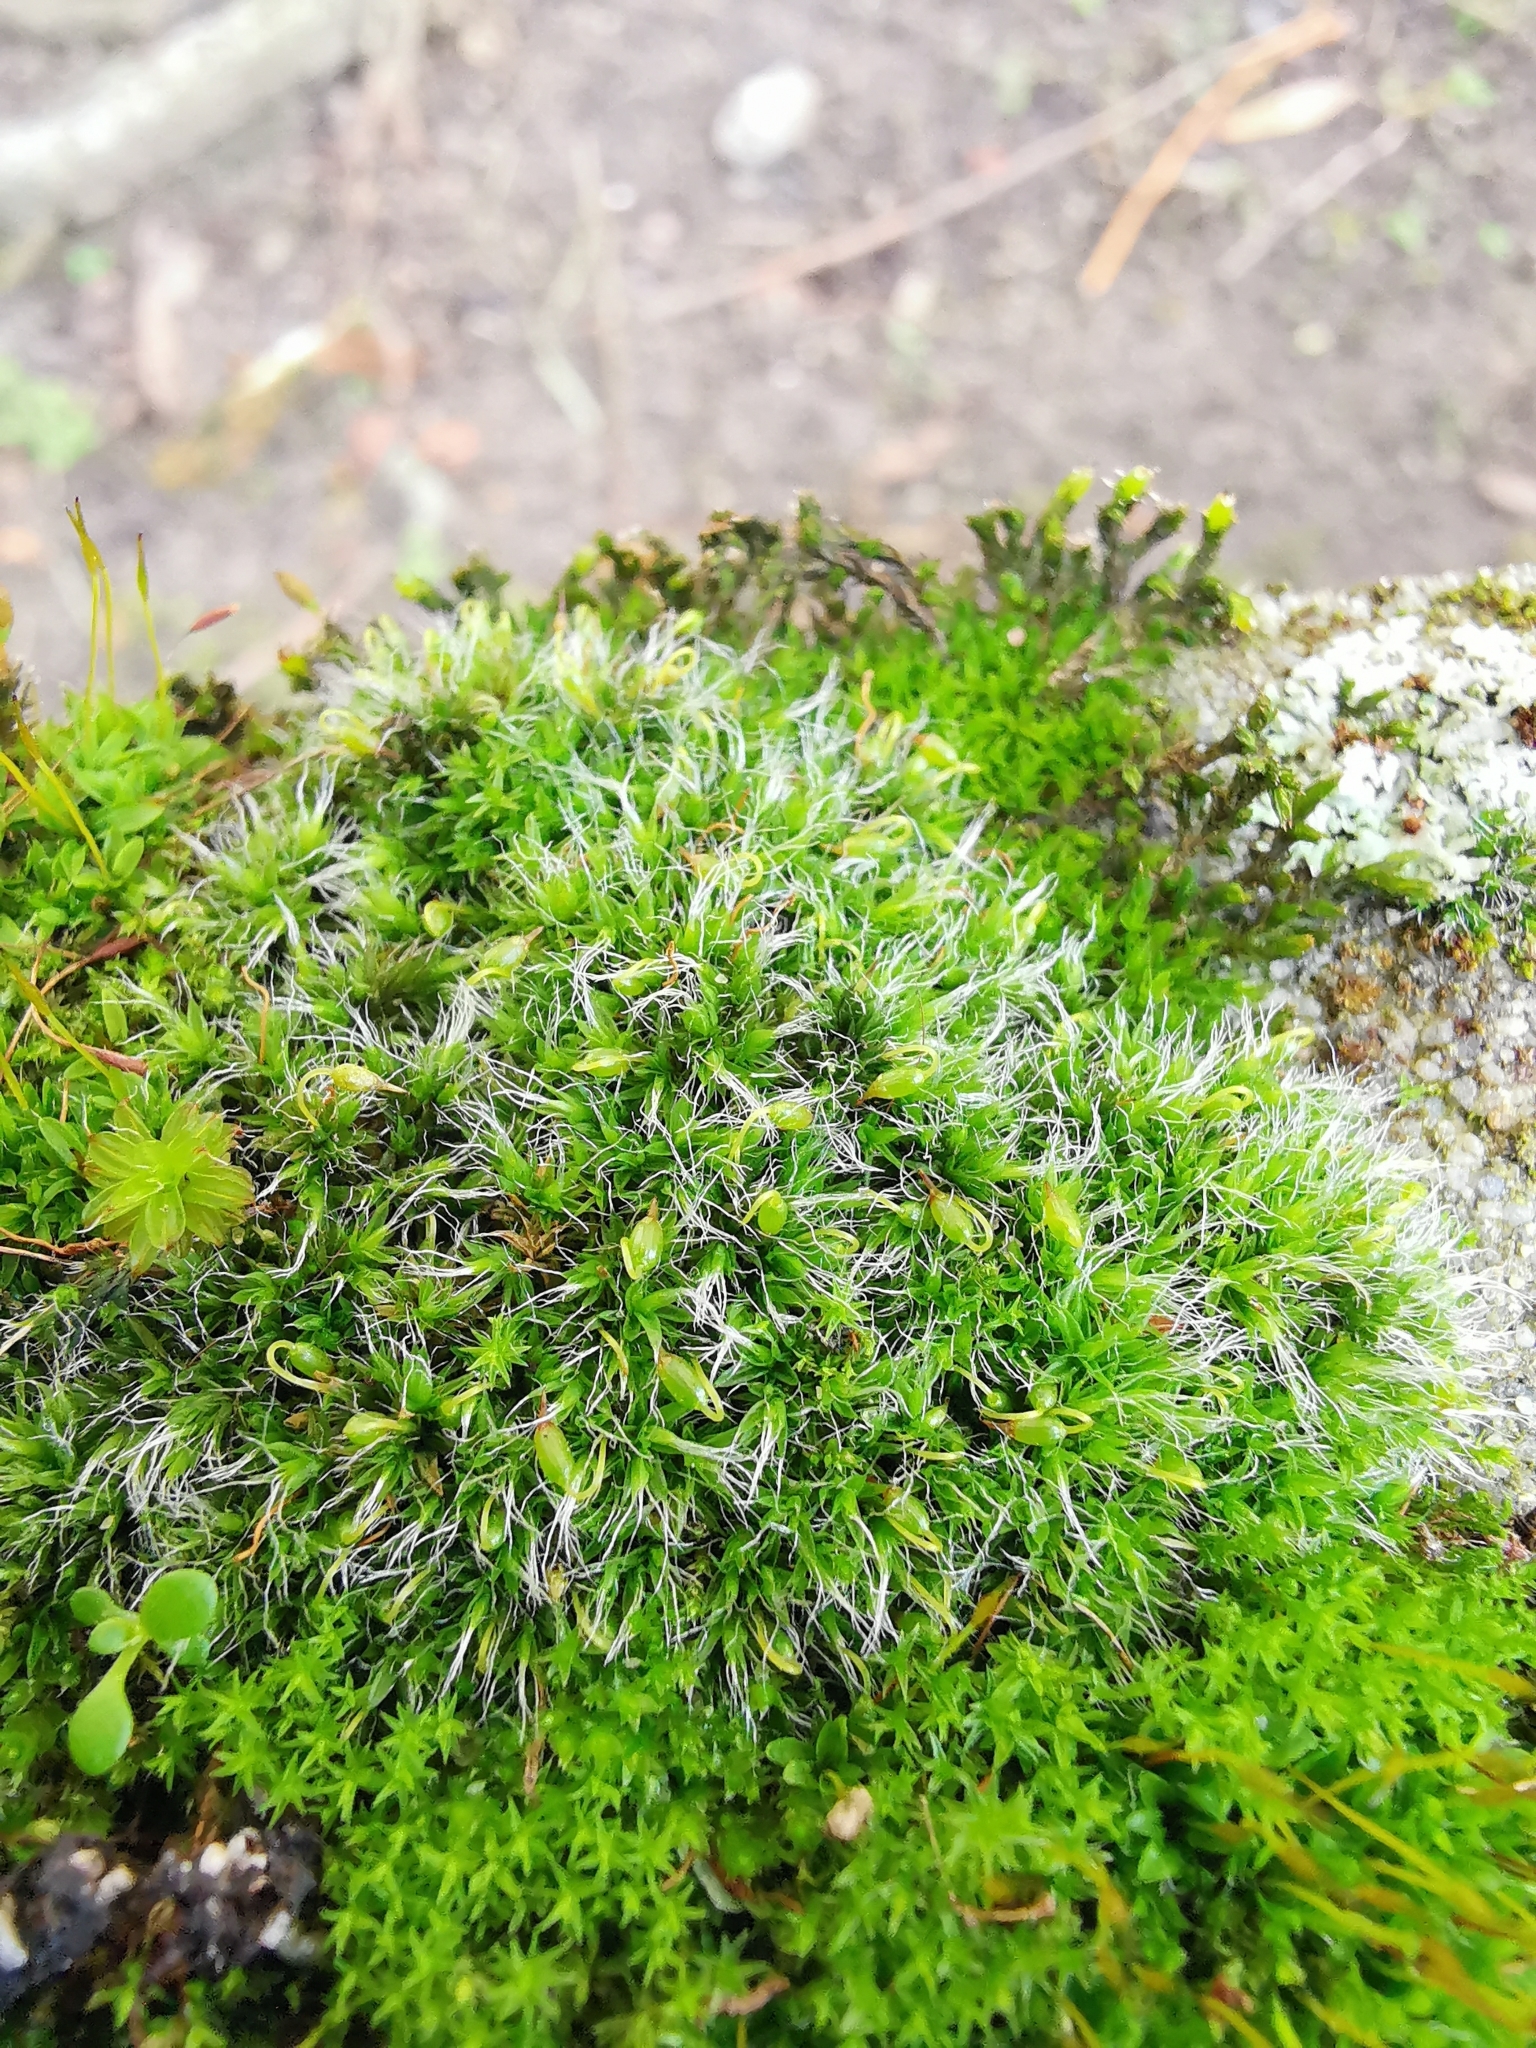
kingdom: Plantae
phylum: Bryophyta
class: Bryopsida
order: Grimmiales
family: Grimmiaceae
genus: Grimmia
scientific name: Grimmia pulvinata
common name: Grey-cushioned grimmia
